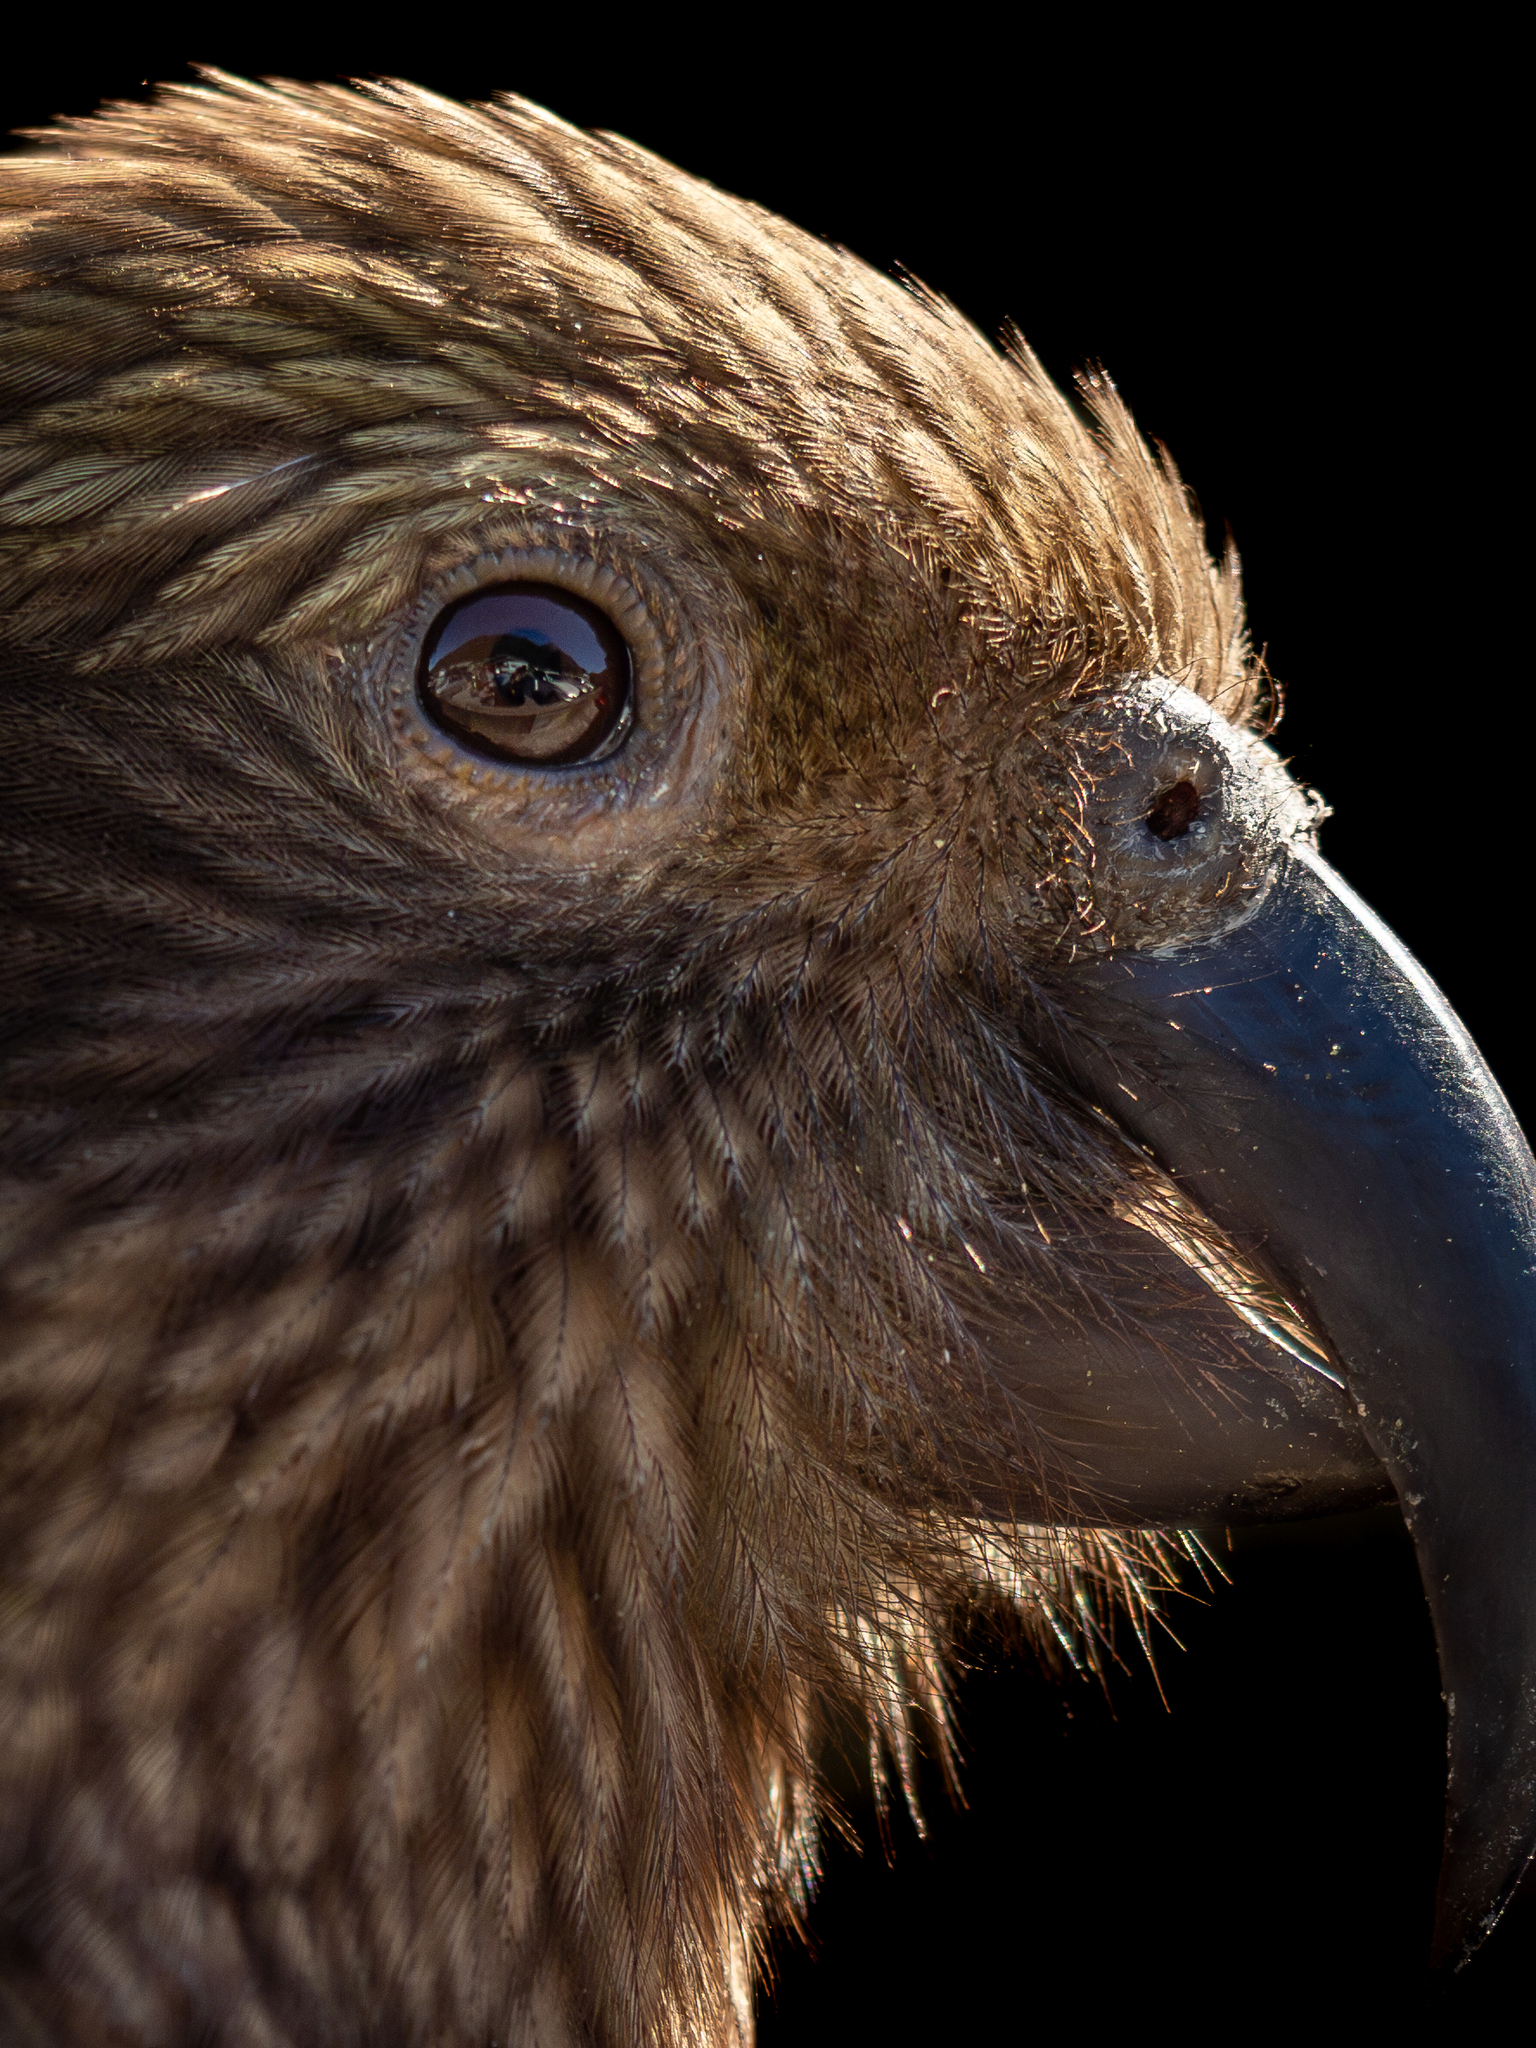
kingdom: Animalia
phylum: Chordata
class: Aves
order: Psittaciformes
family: Psittacidae
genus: Nestor
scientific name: Nestor notabilis
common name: Kea
